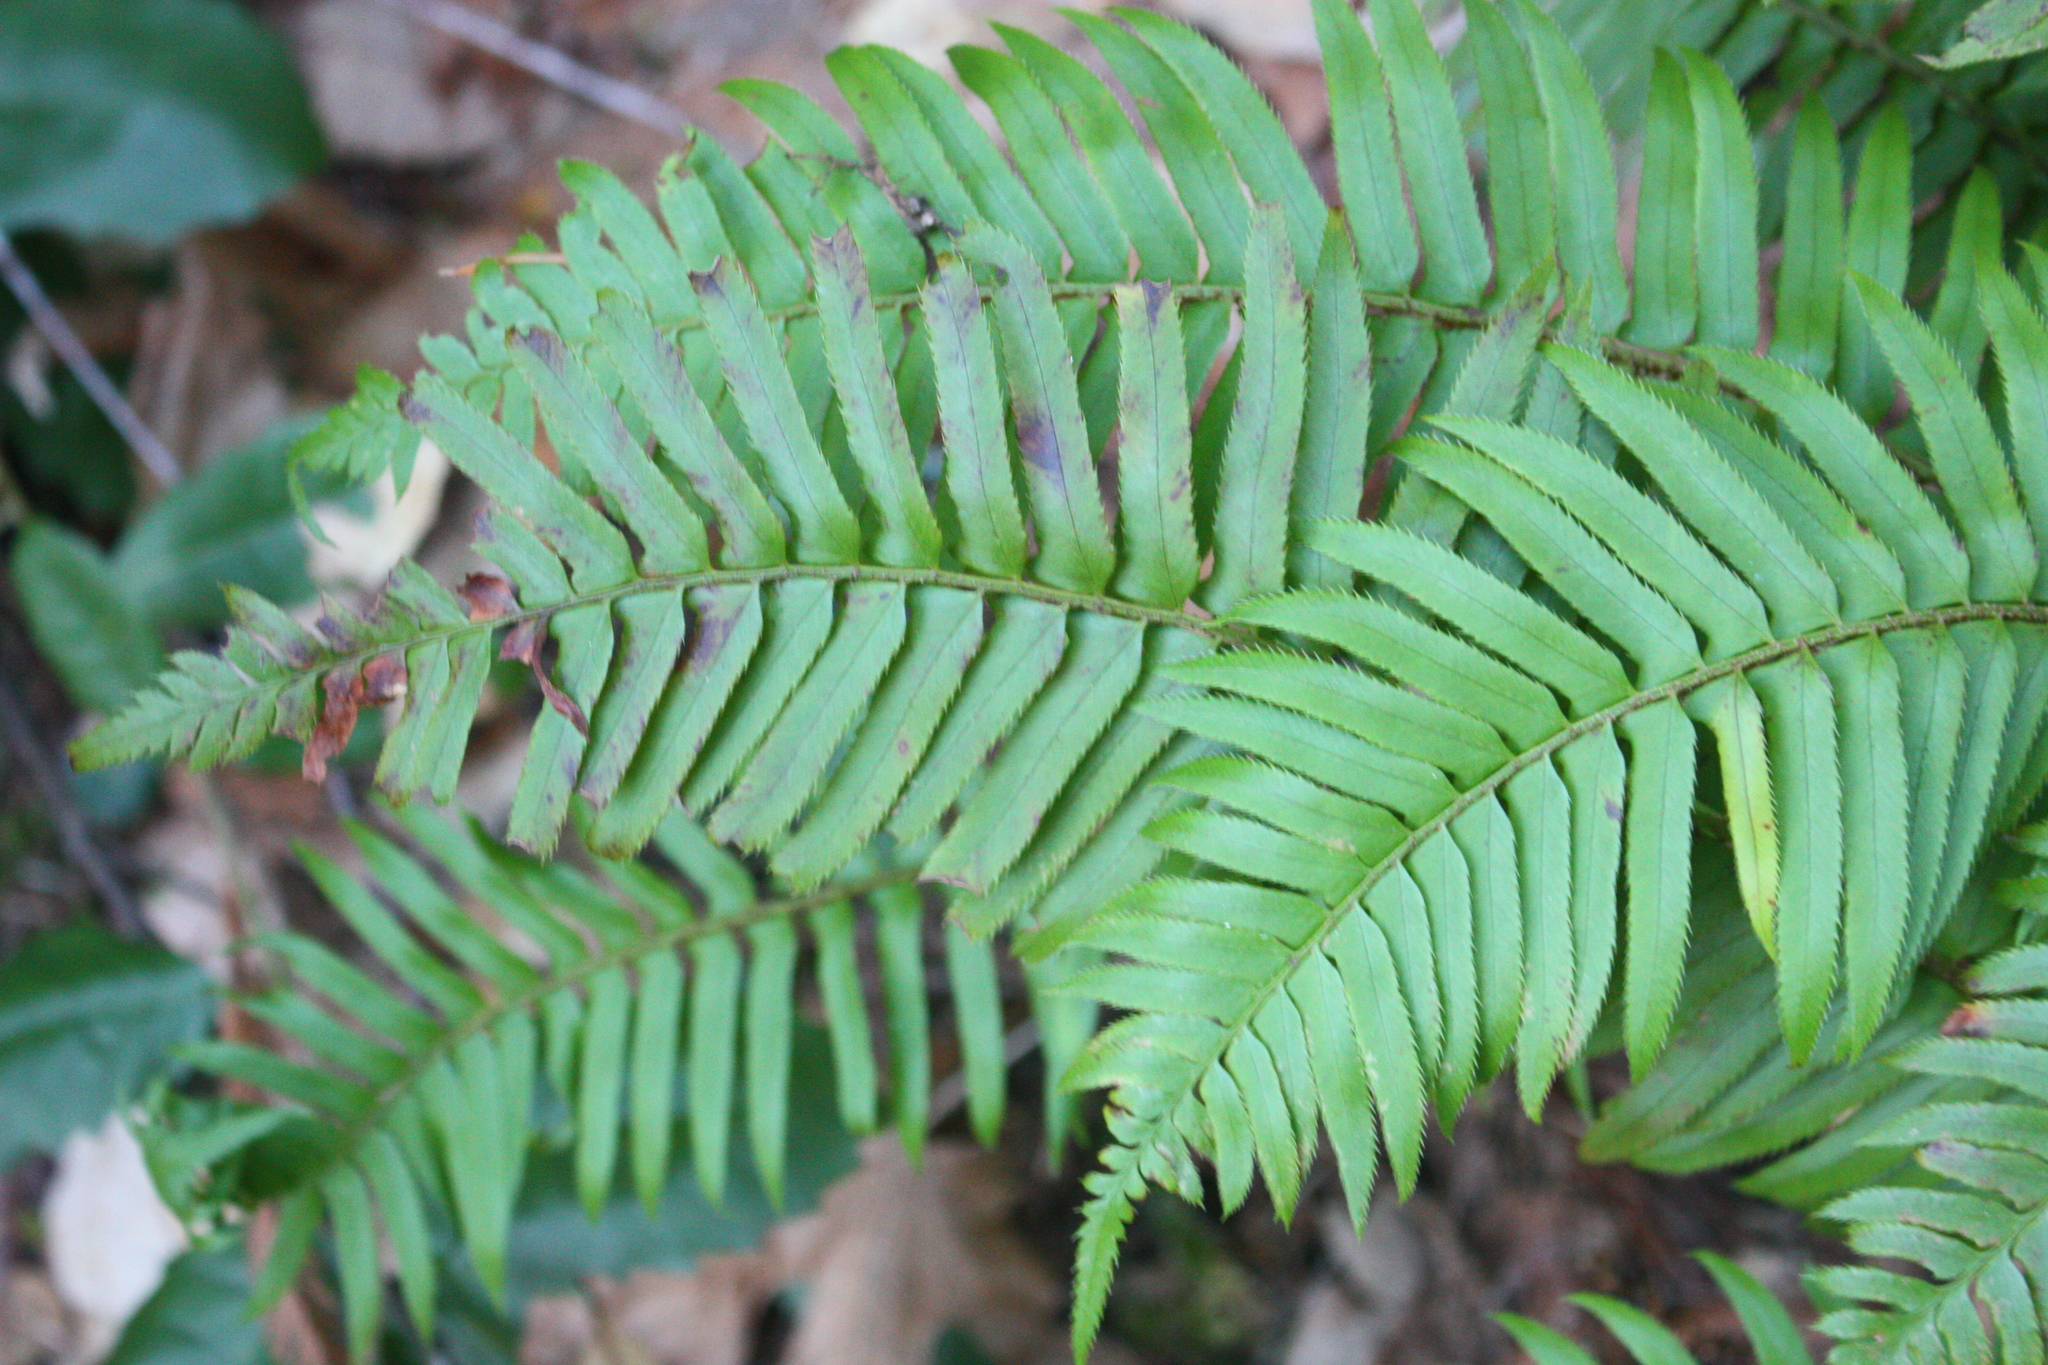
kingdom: Plantae
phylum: Tracheophyta
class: Polypodiopsida
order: Polypodiales
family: Dryopteridaceae
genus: Polystichum
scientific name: Polystichum munitum
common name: Western sword-fern
